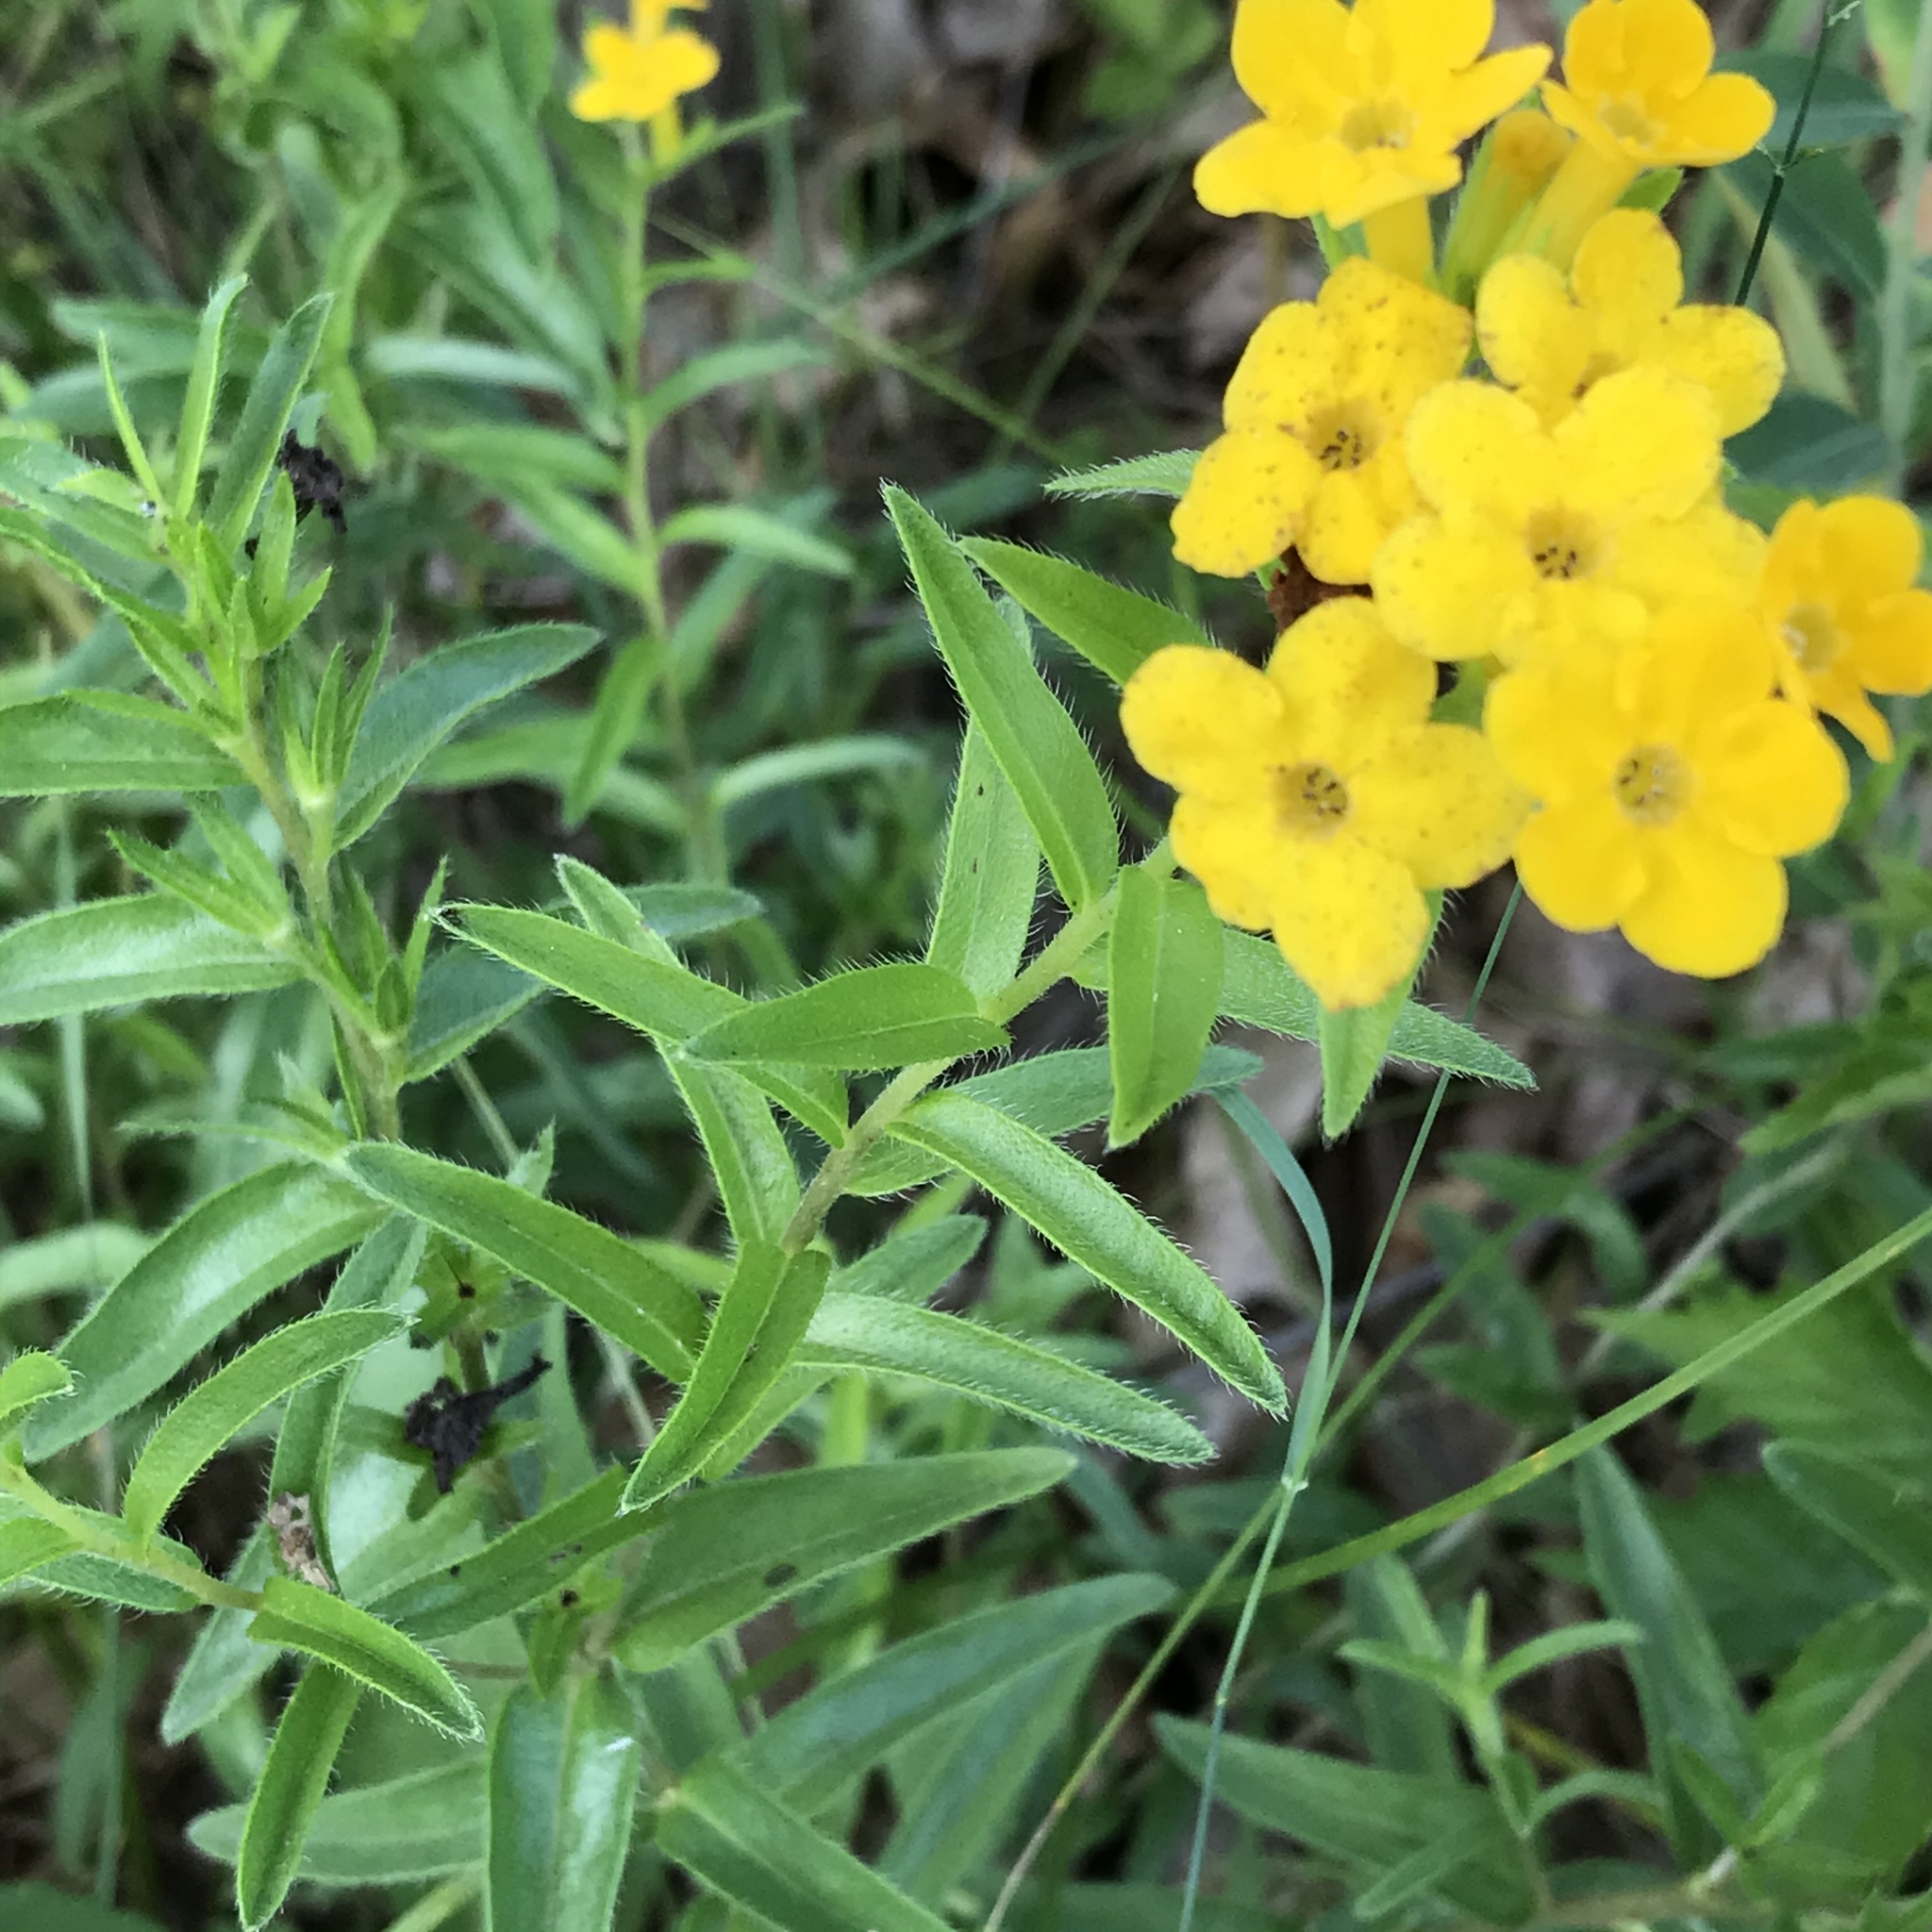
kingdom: Plantae
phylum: Tracheophyta
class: Magnoliopsida
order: Boraginales
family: Boraginaceae
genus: Lithospermum
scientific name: Lithospermum caroliniense
